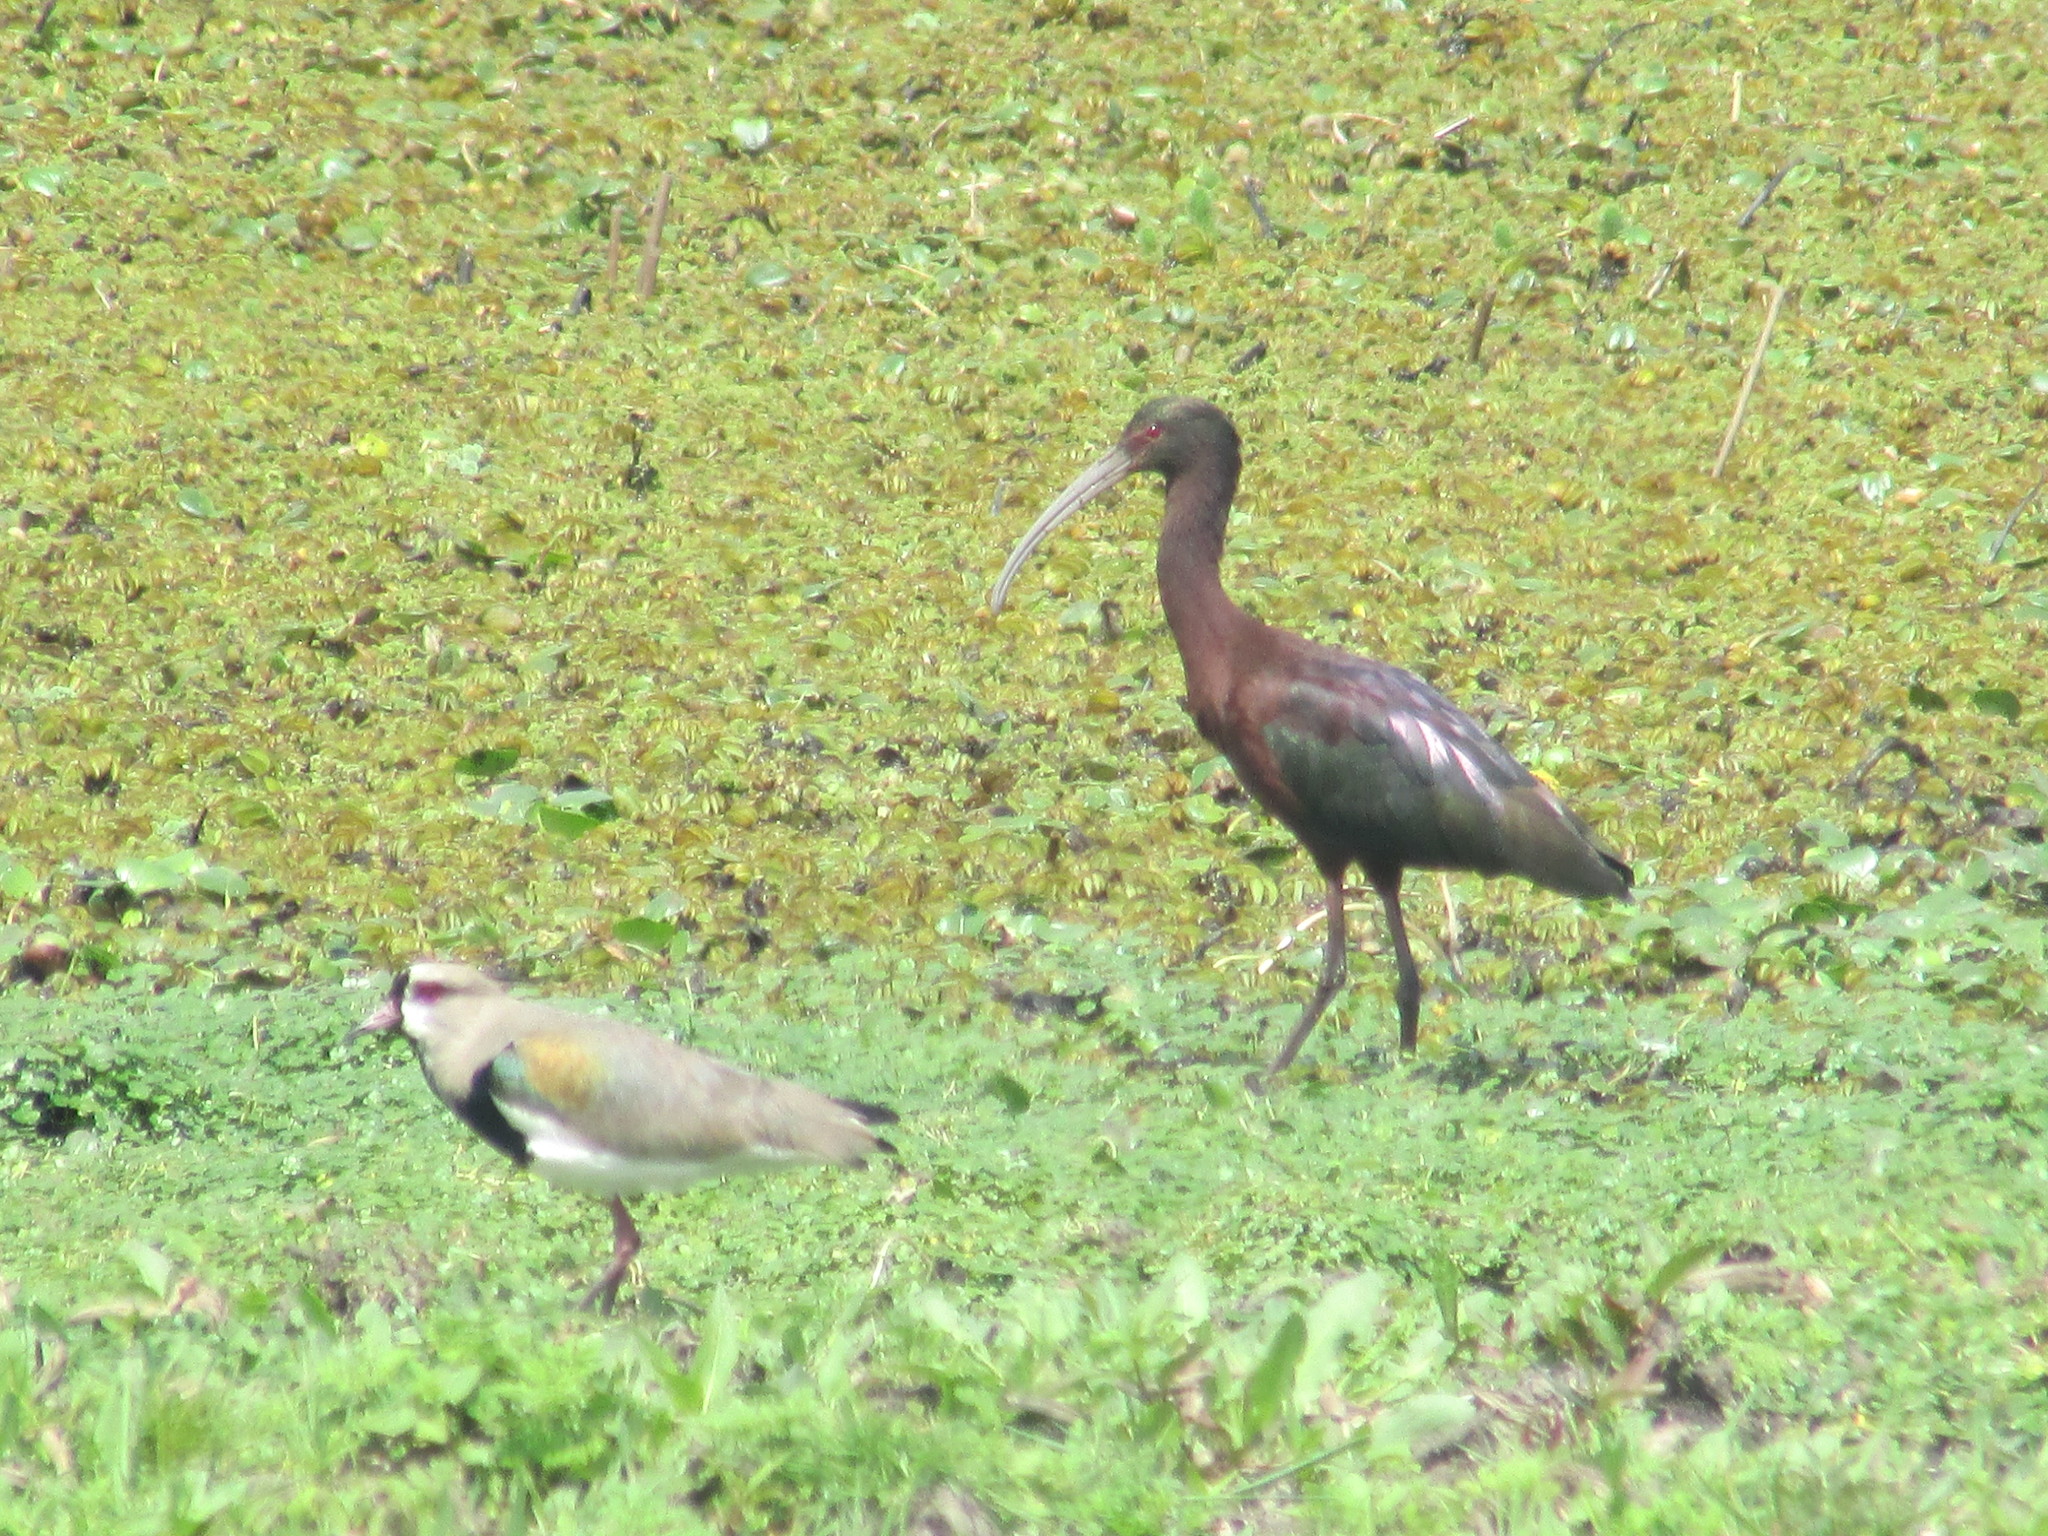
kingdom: Animalia
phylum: Chordata
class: Aves
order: Pelecaniformes
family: Threskiornithidae
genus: Plegadis
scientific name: Plegadis chihi
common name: White-faced ibis
